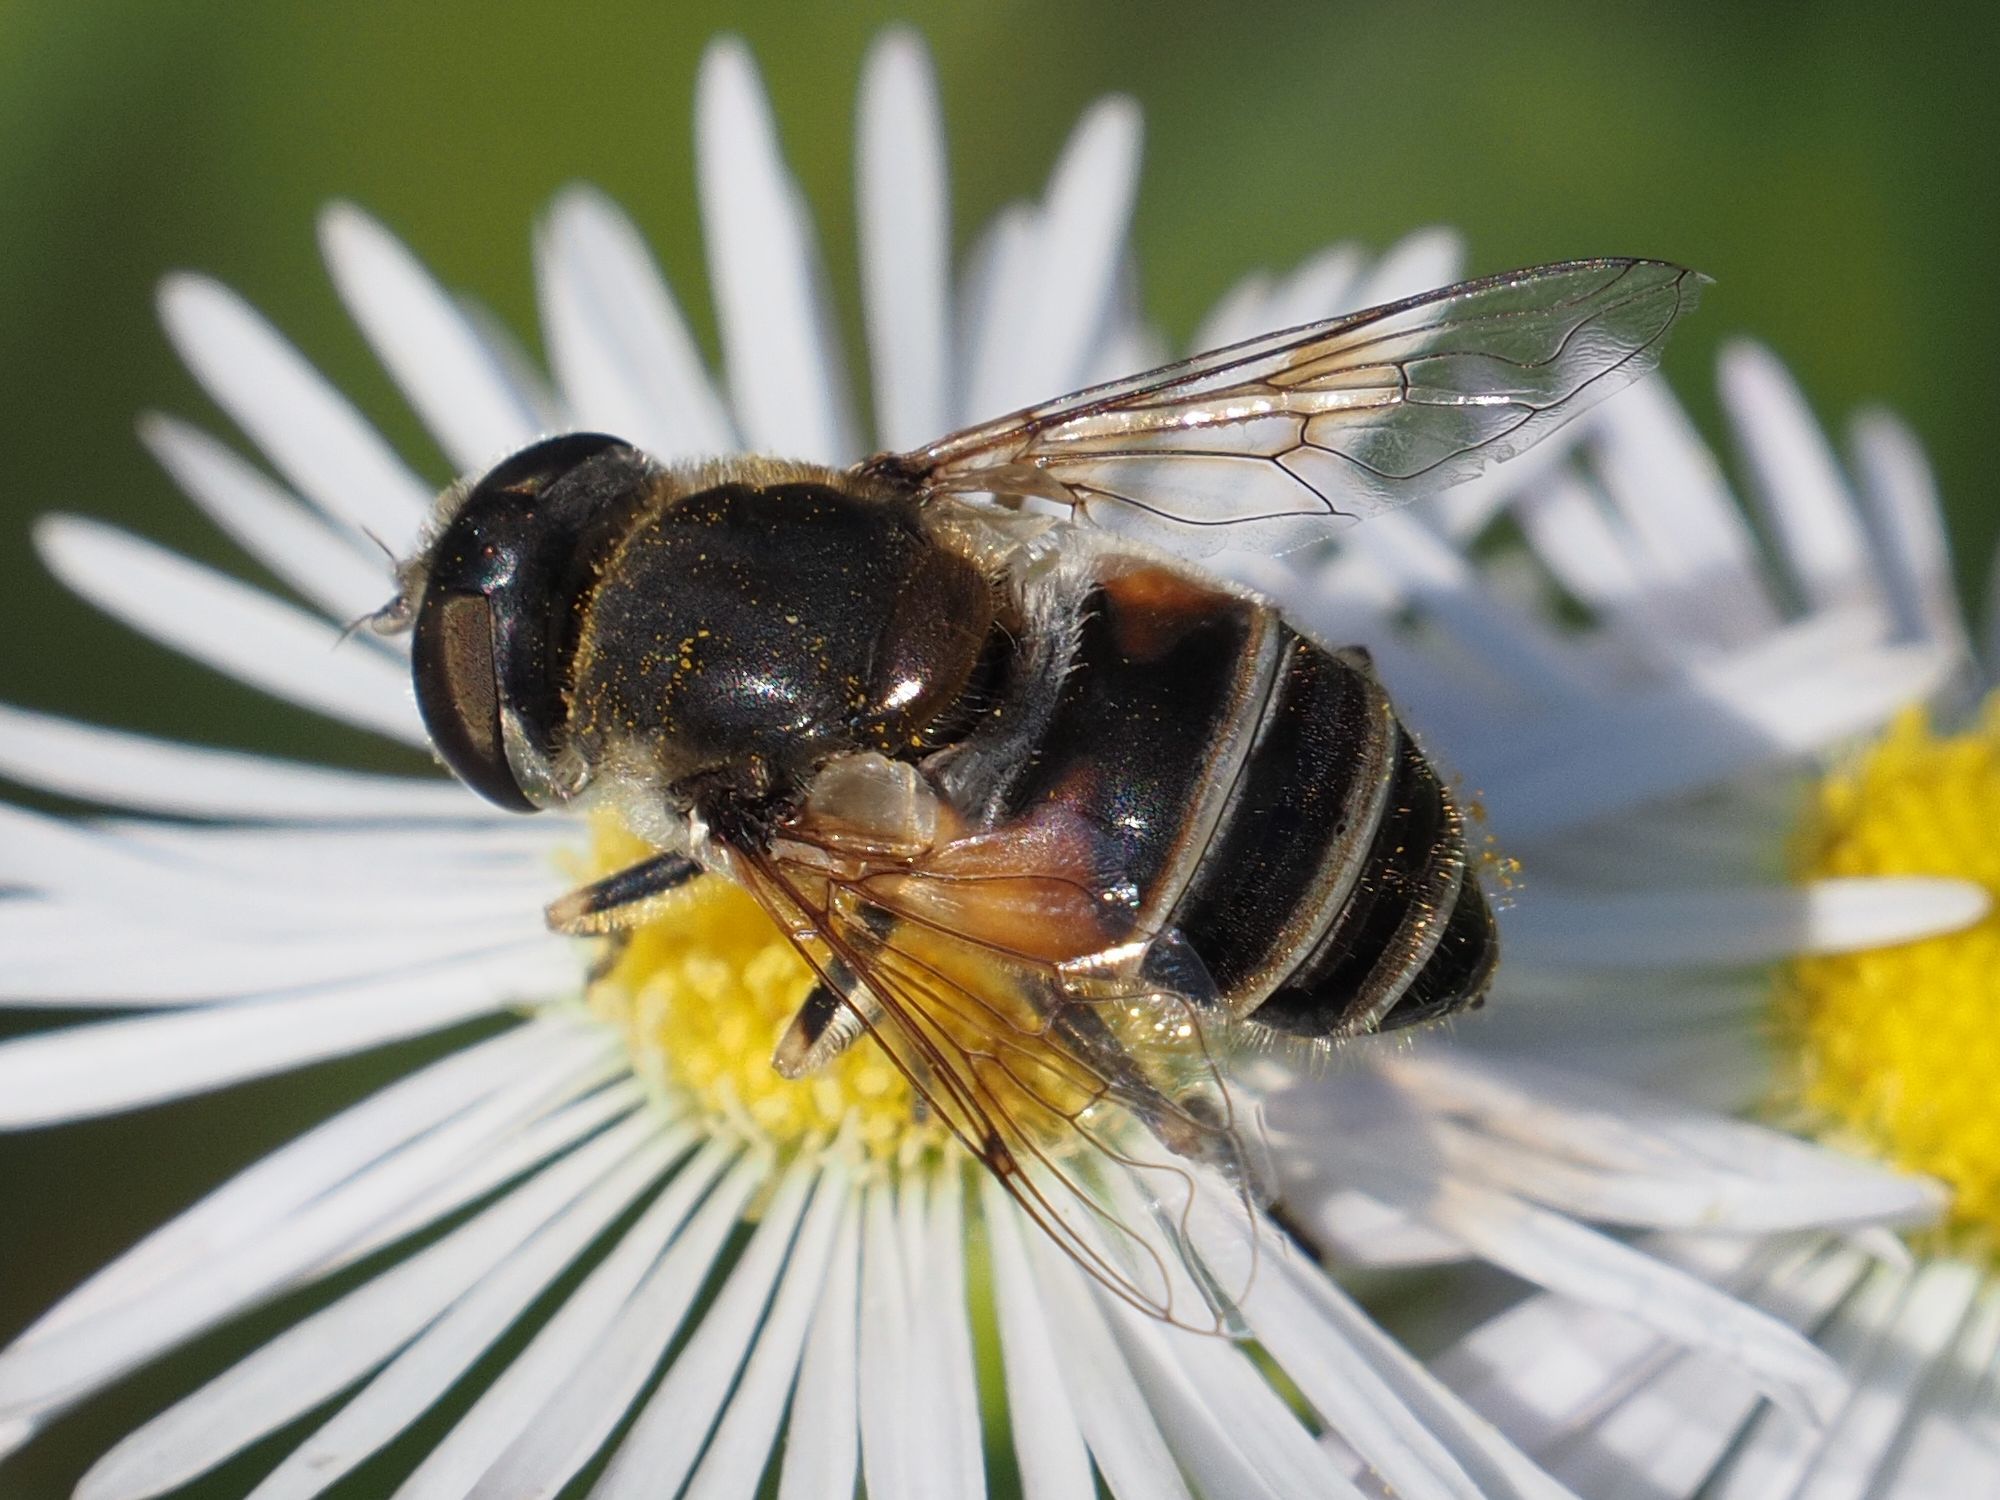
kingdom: Animalia
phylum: Arthropoda
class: Insecta
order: Diptera
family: Syrphidae
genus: Eristalis
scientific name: Eristalis arbustorum
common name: Hover fly
